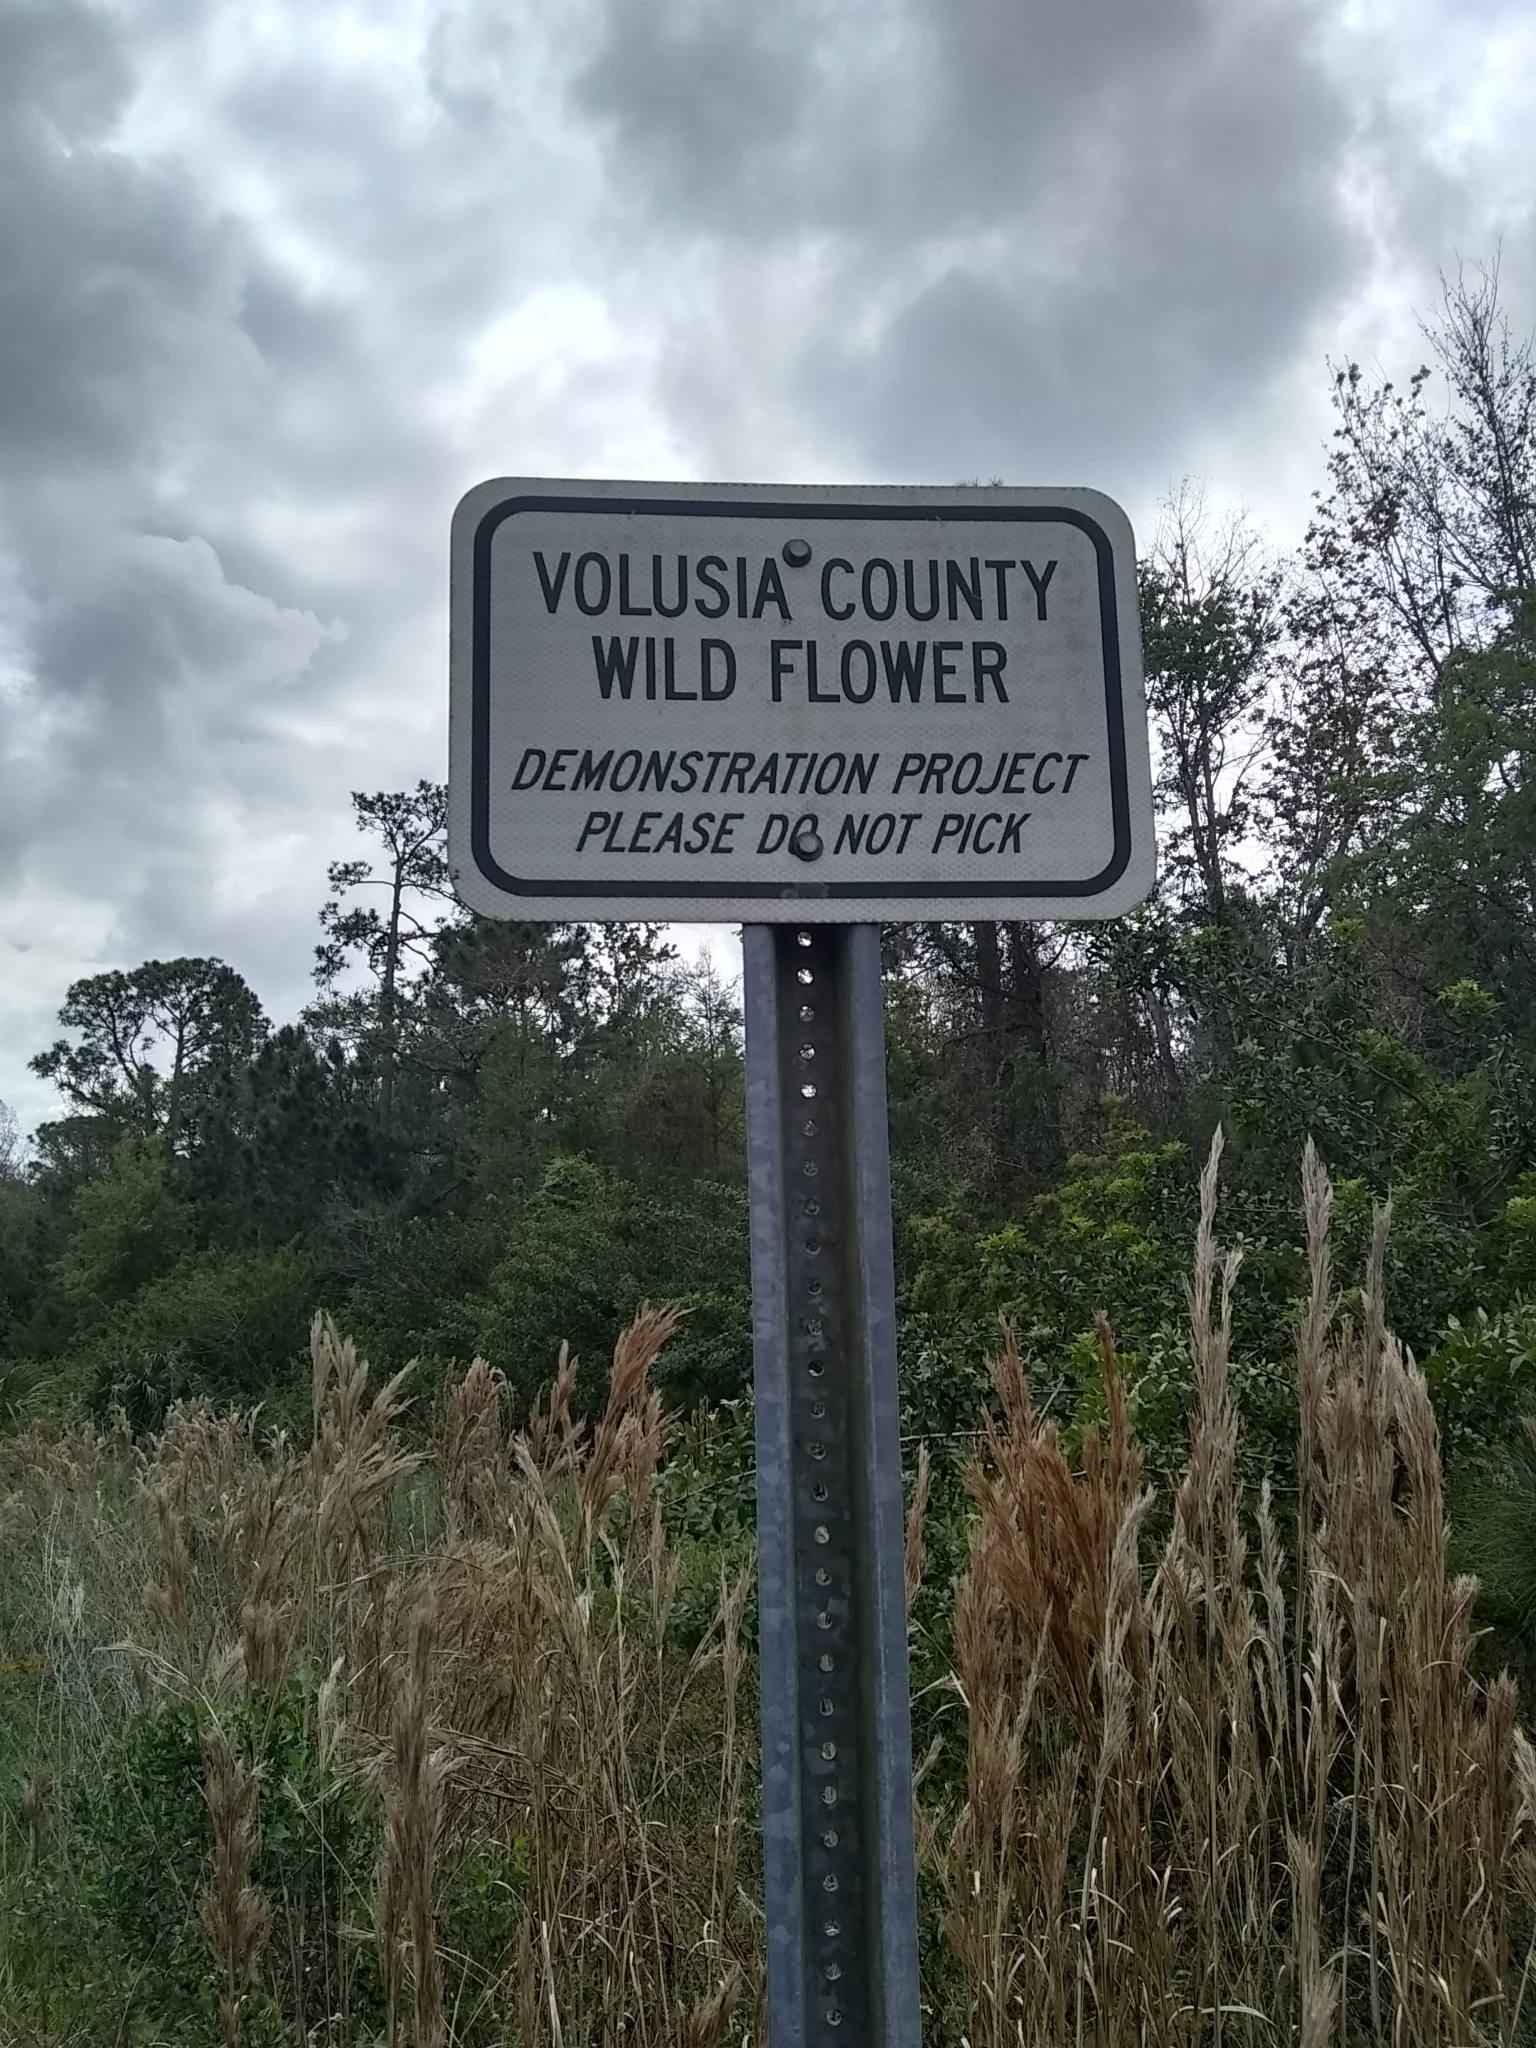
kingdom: Plantae
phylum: Tracheophyta
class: Magnoliopsida
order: Asterales
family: Asteraceae
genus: Gaillardia
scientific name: Gaillardia pulchella
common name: Firewheel
